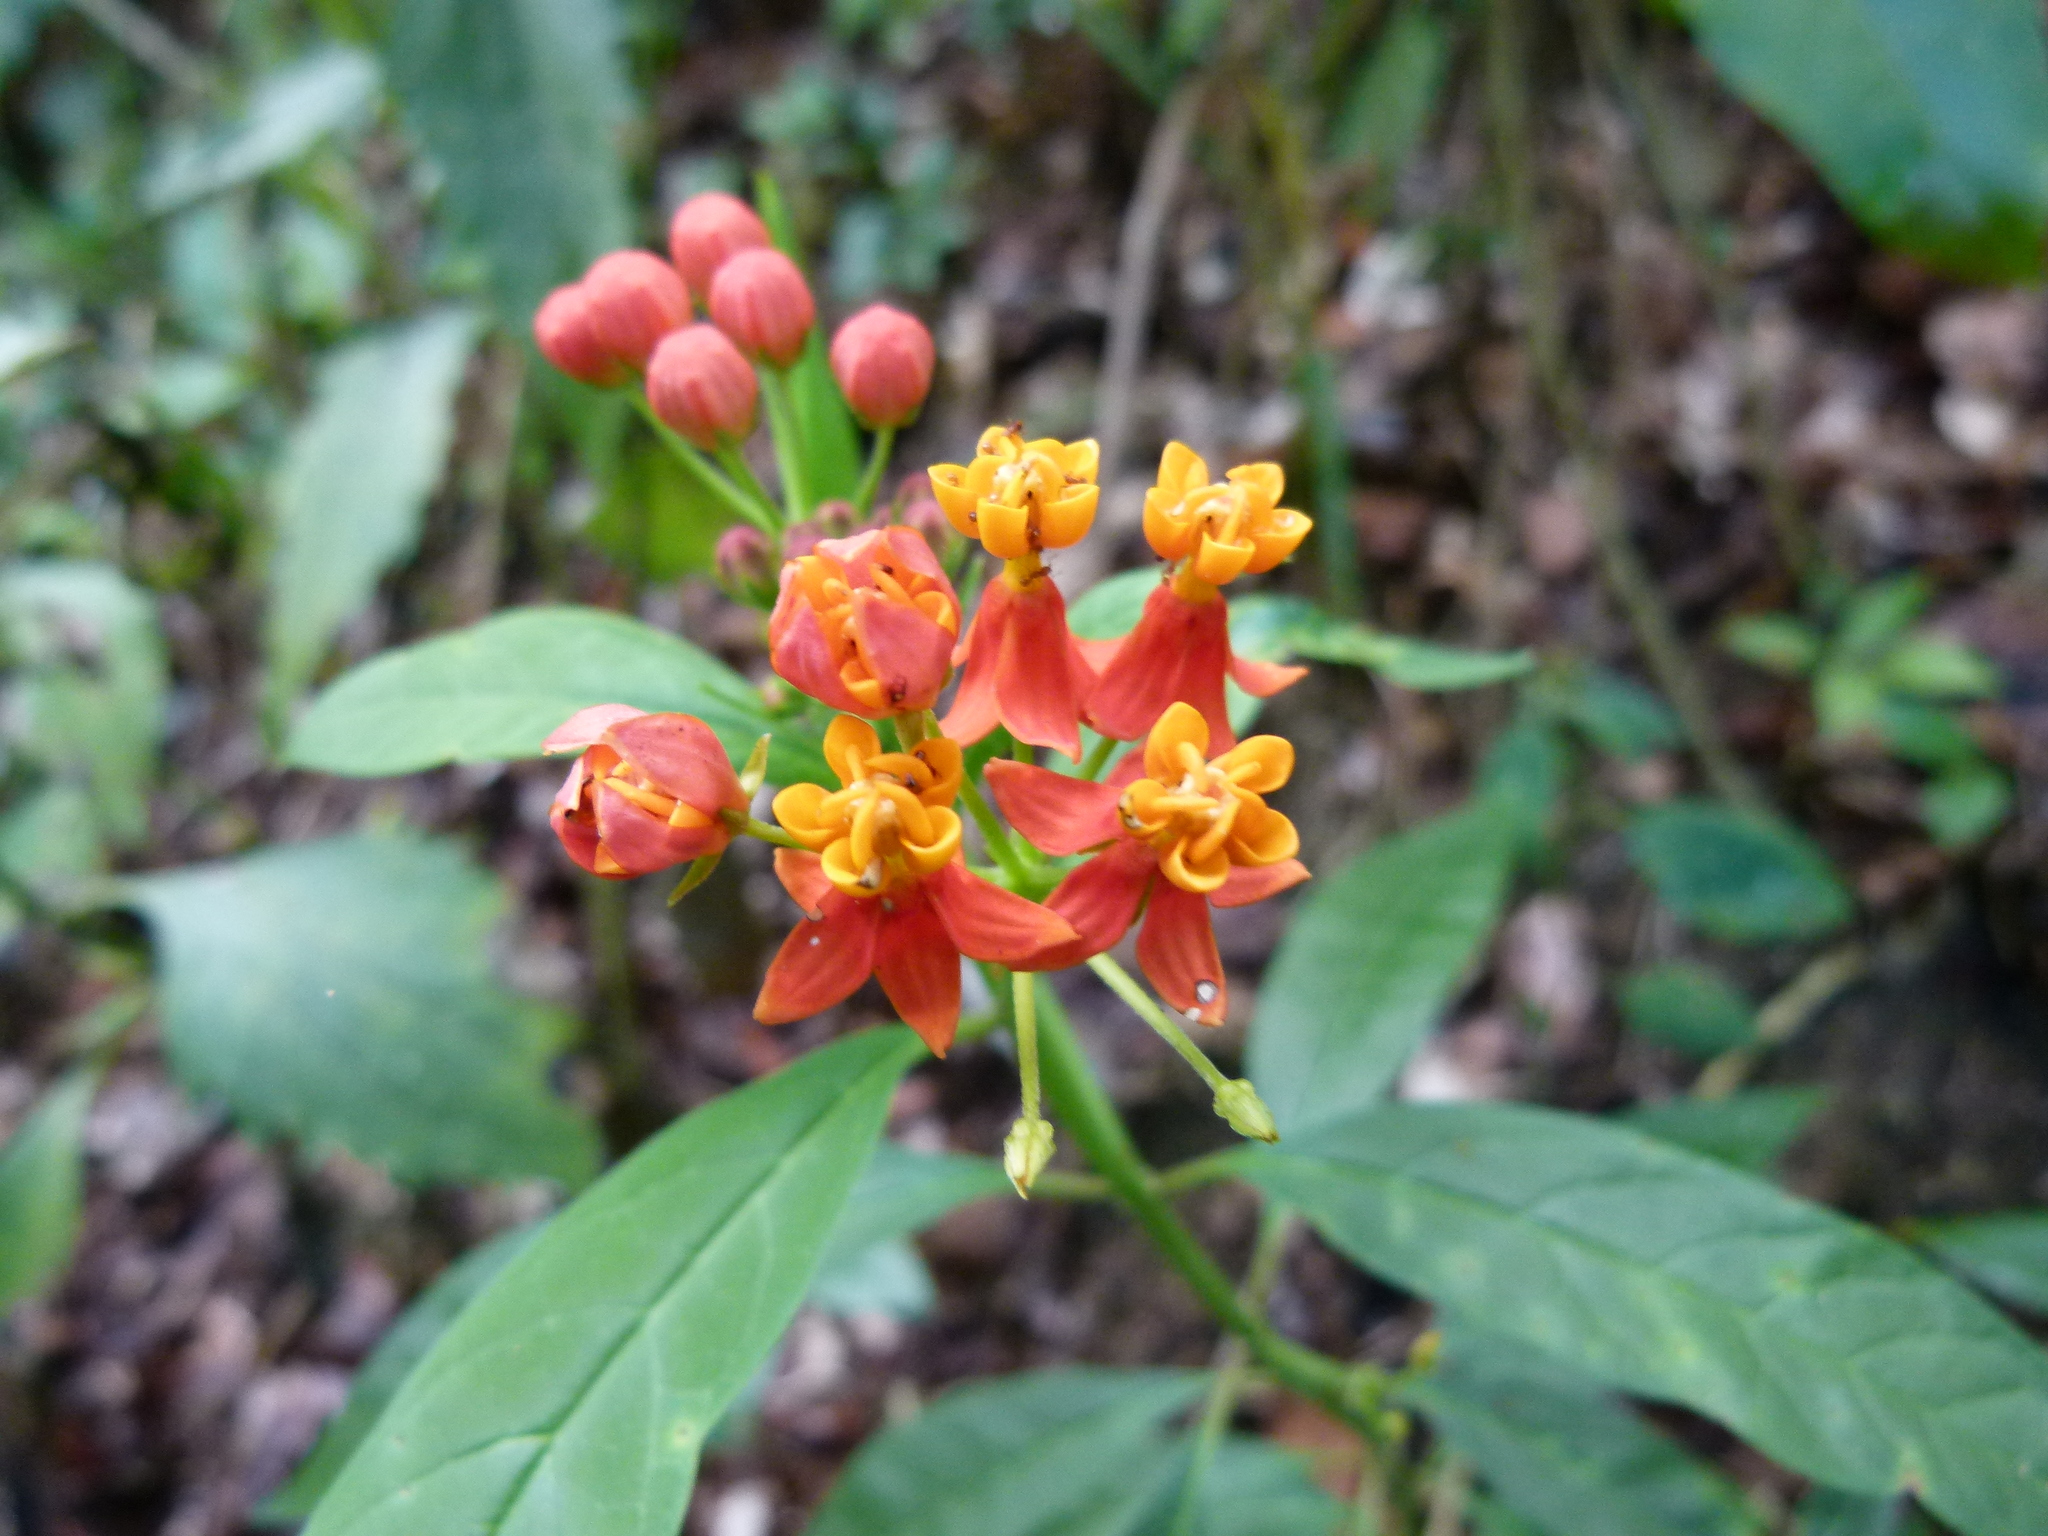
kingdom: Plantae
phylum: Tracheophyta
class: Magnoliopsida
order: Gentianales
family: Apocynaceae
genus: Asclepias
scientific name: Asclepias curassavica
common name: Bloodflower
